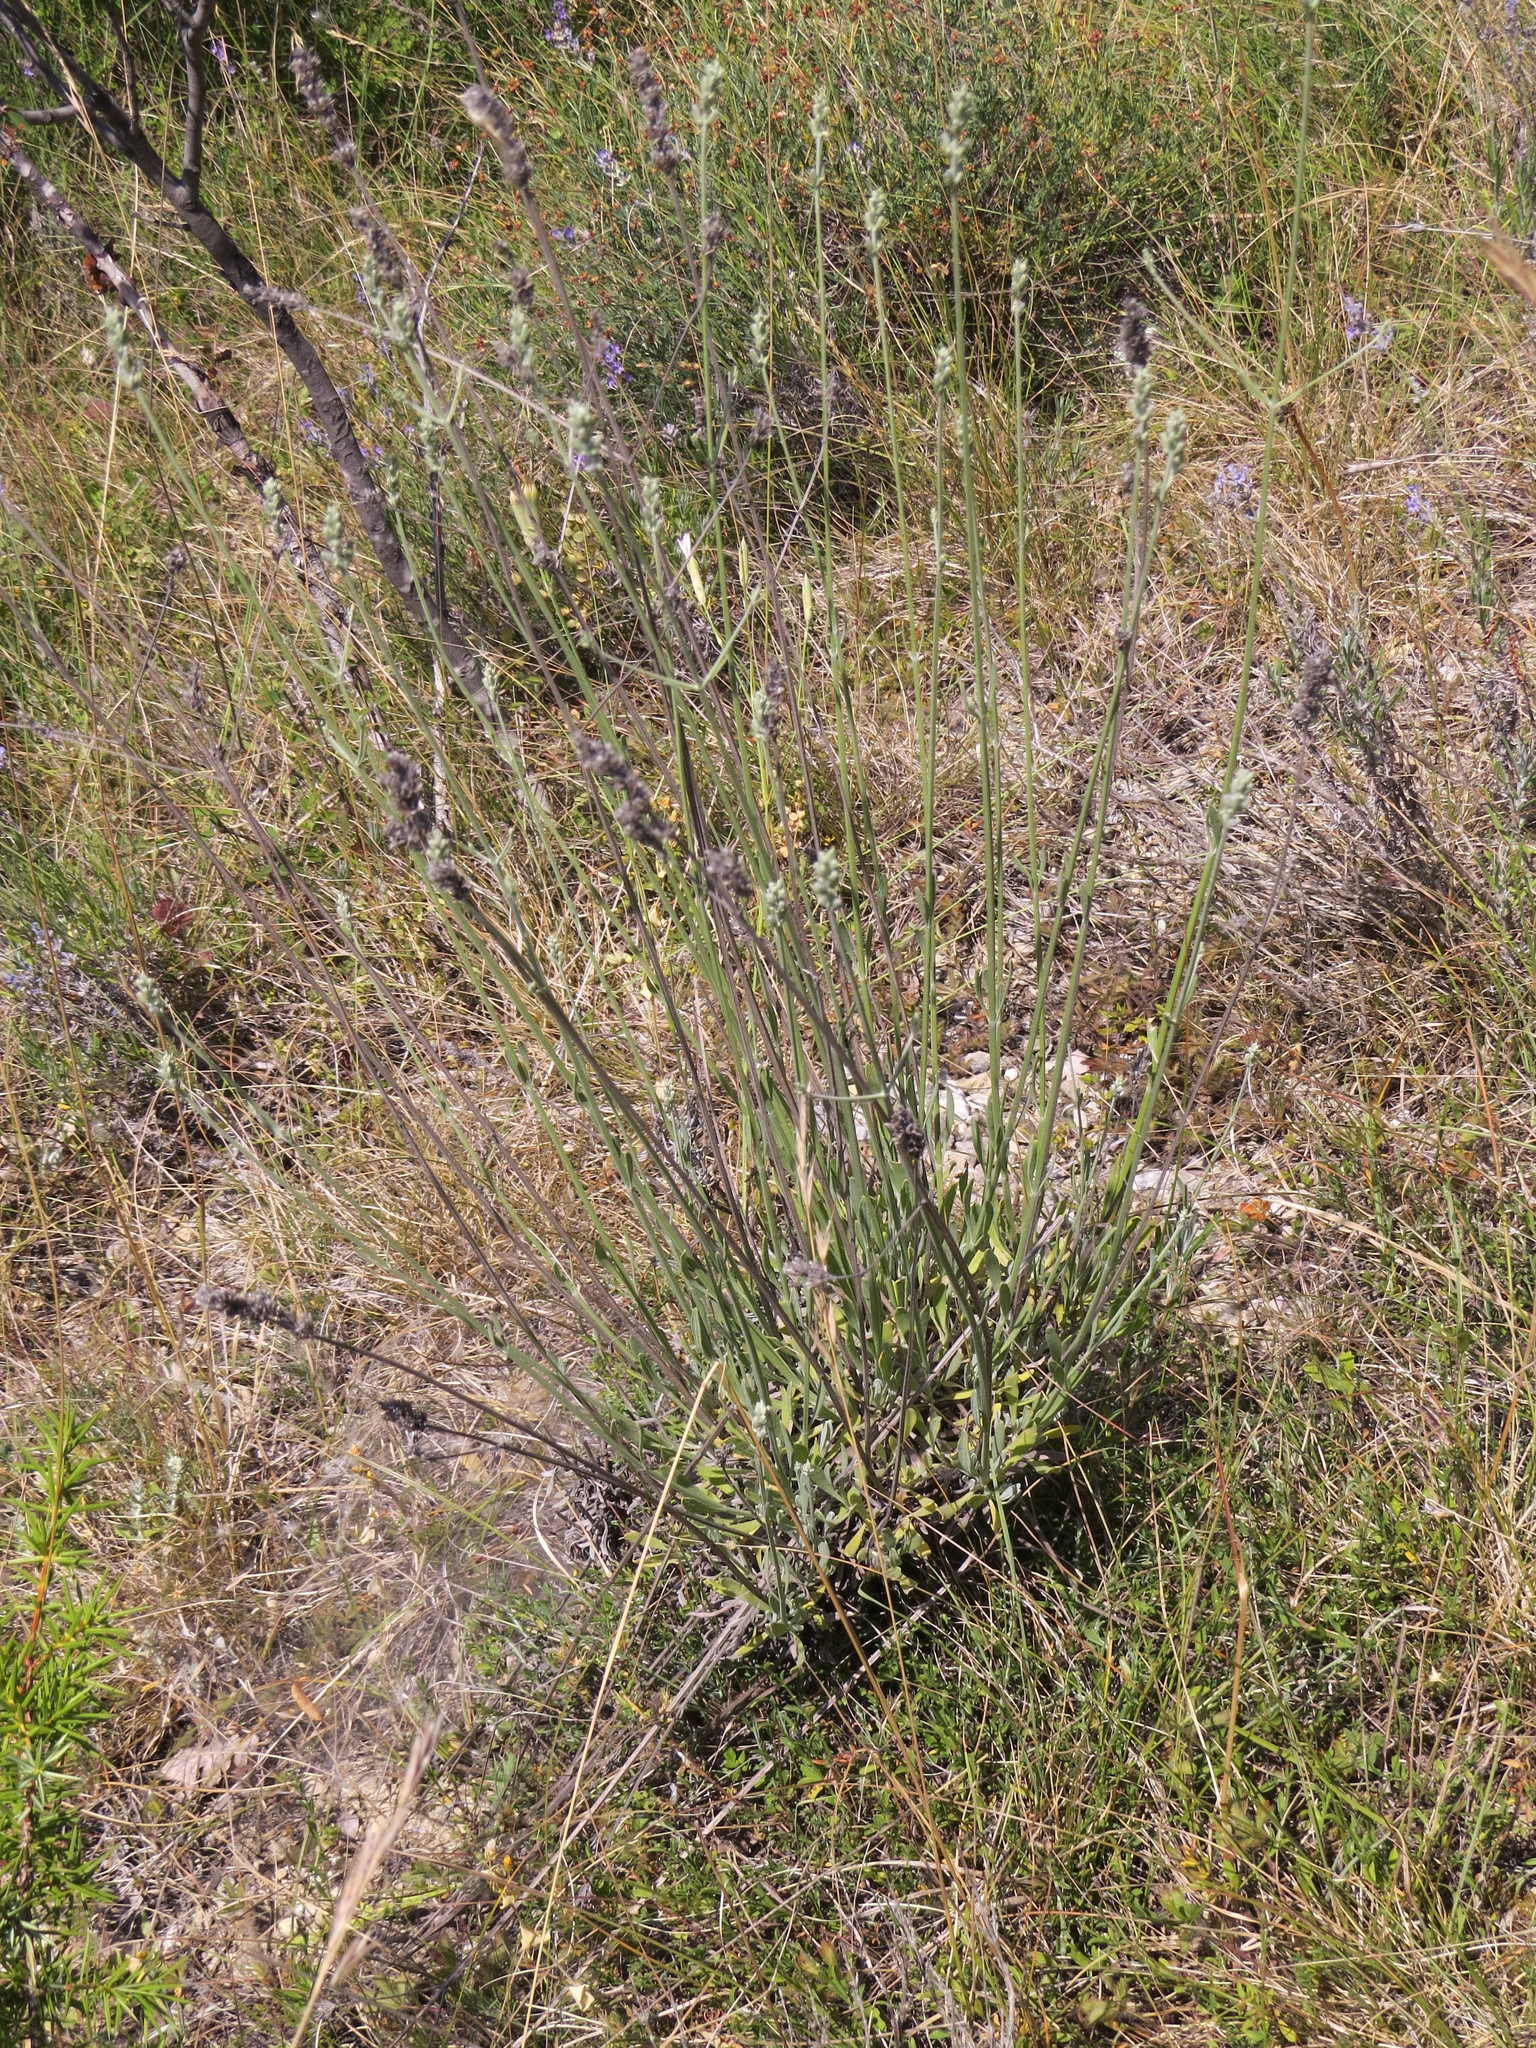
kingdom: Plantae
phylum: Tracheophyta
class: Magnoliopsida
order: Lamiales
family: Lamiaceae
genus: Lavandula
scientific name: Lavandula angustifolia
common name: Garden lavender
